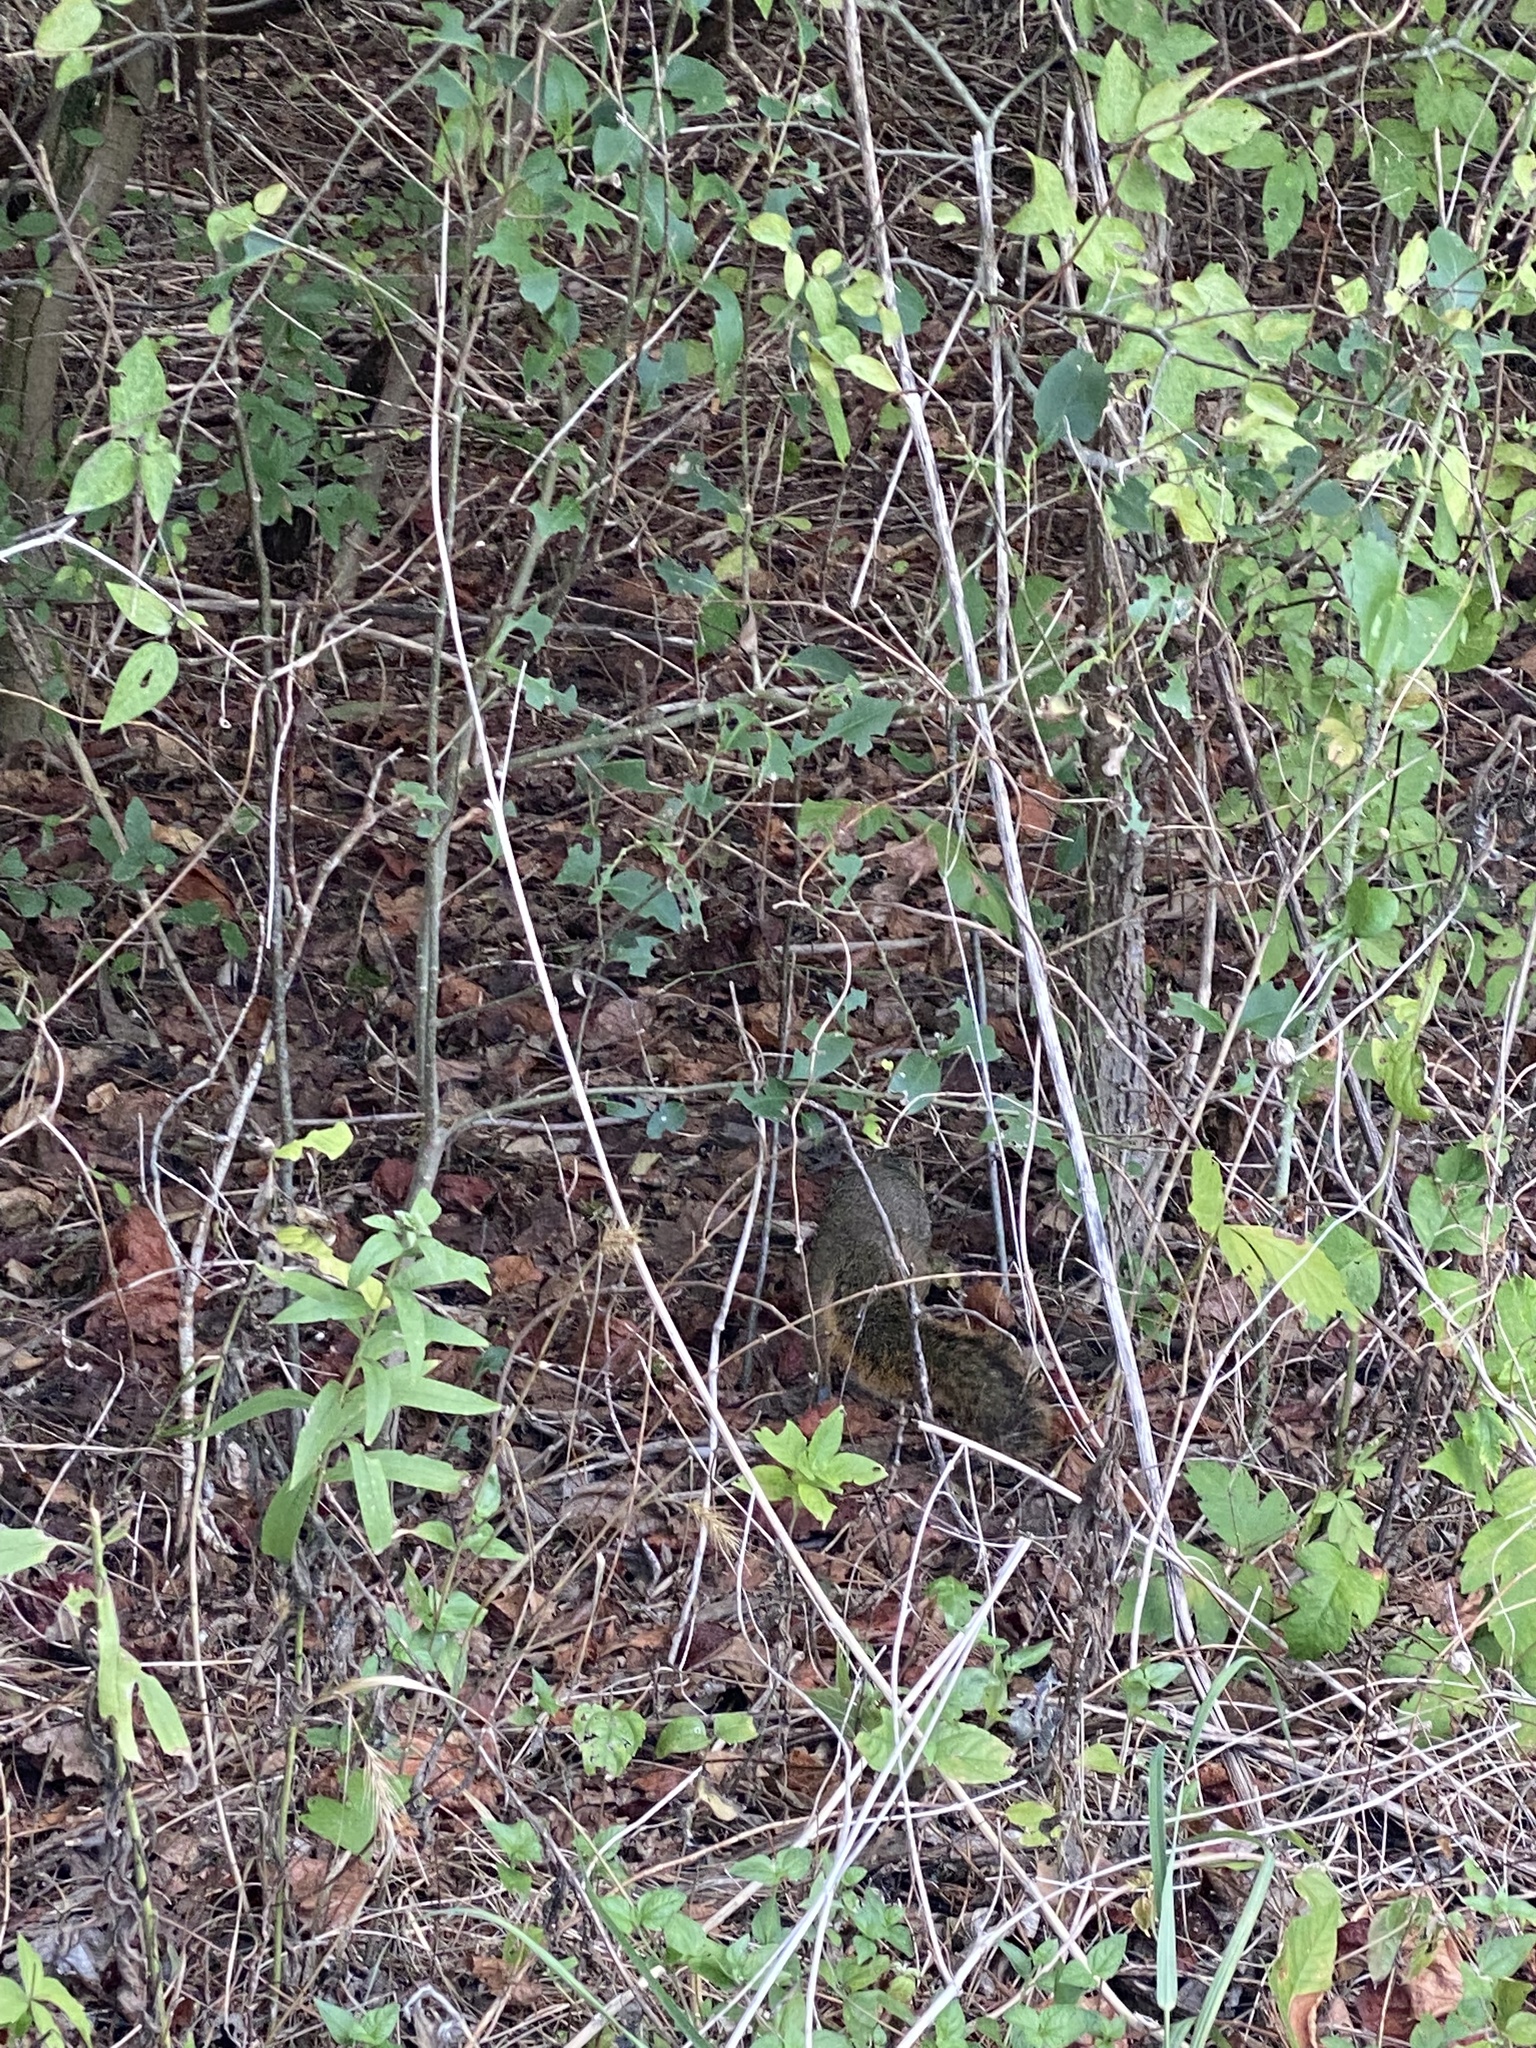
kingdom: Animalia
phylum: Chordata
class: Mammalia
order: Rodentia
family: Sciuridae
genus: Sciurus
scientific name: Sciurus niger
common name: Fox squirrel
